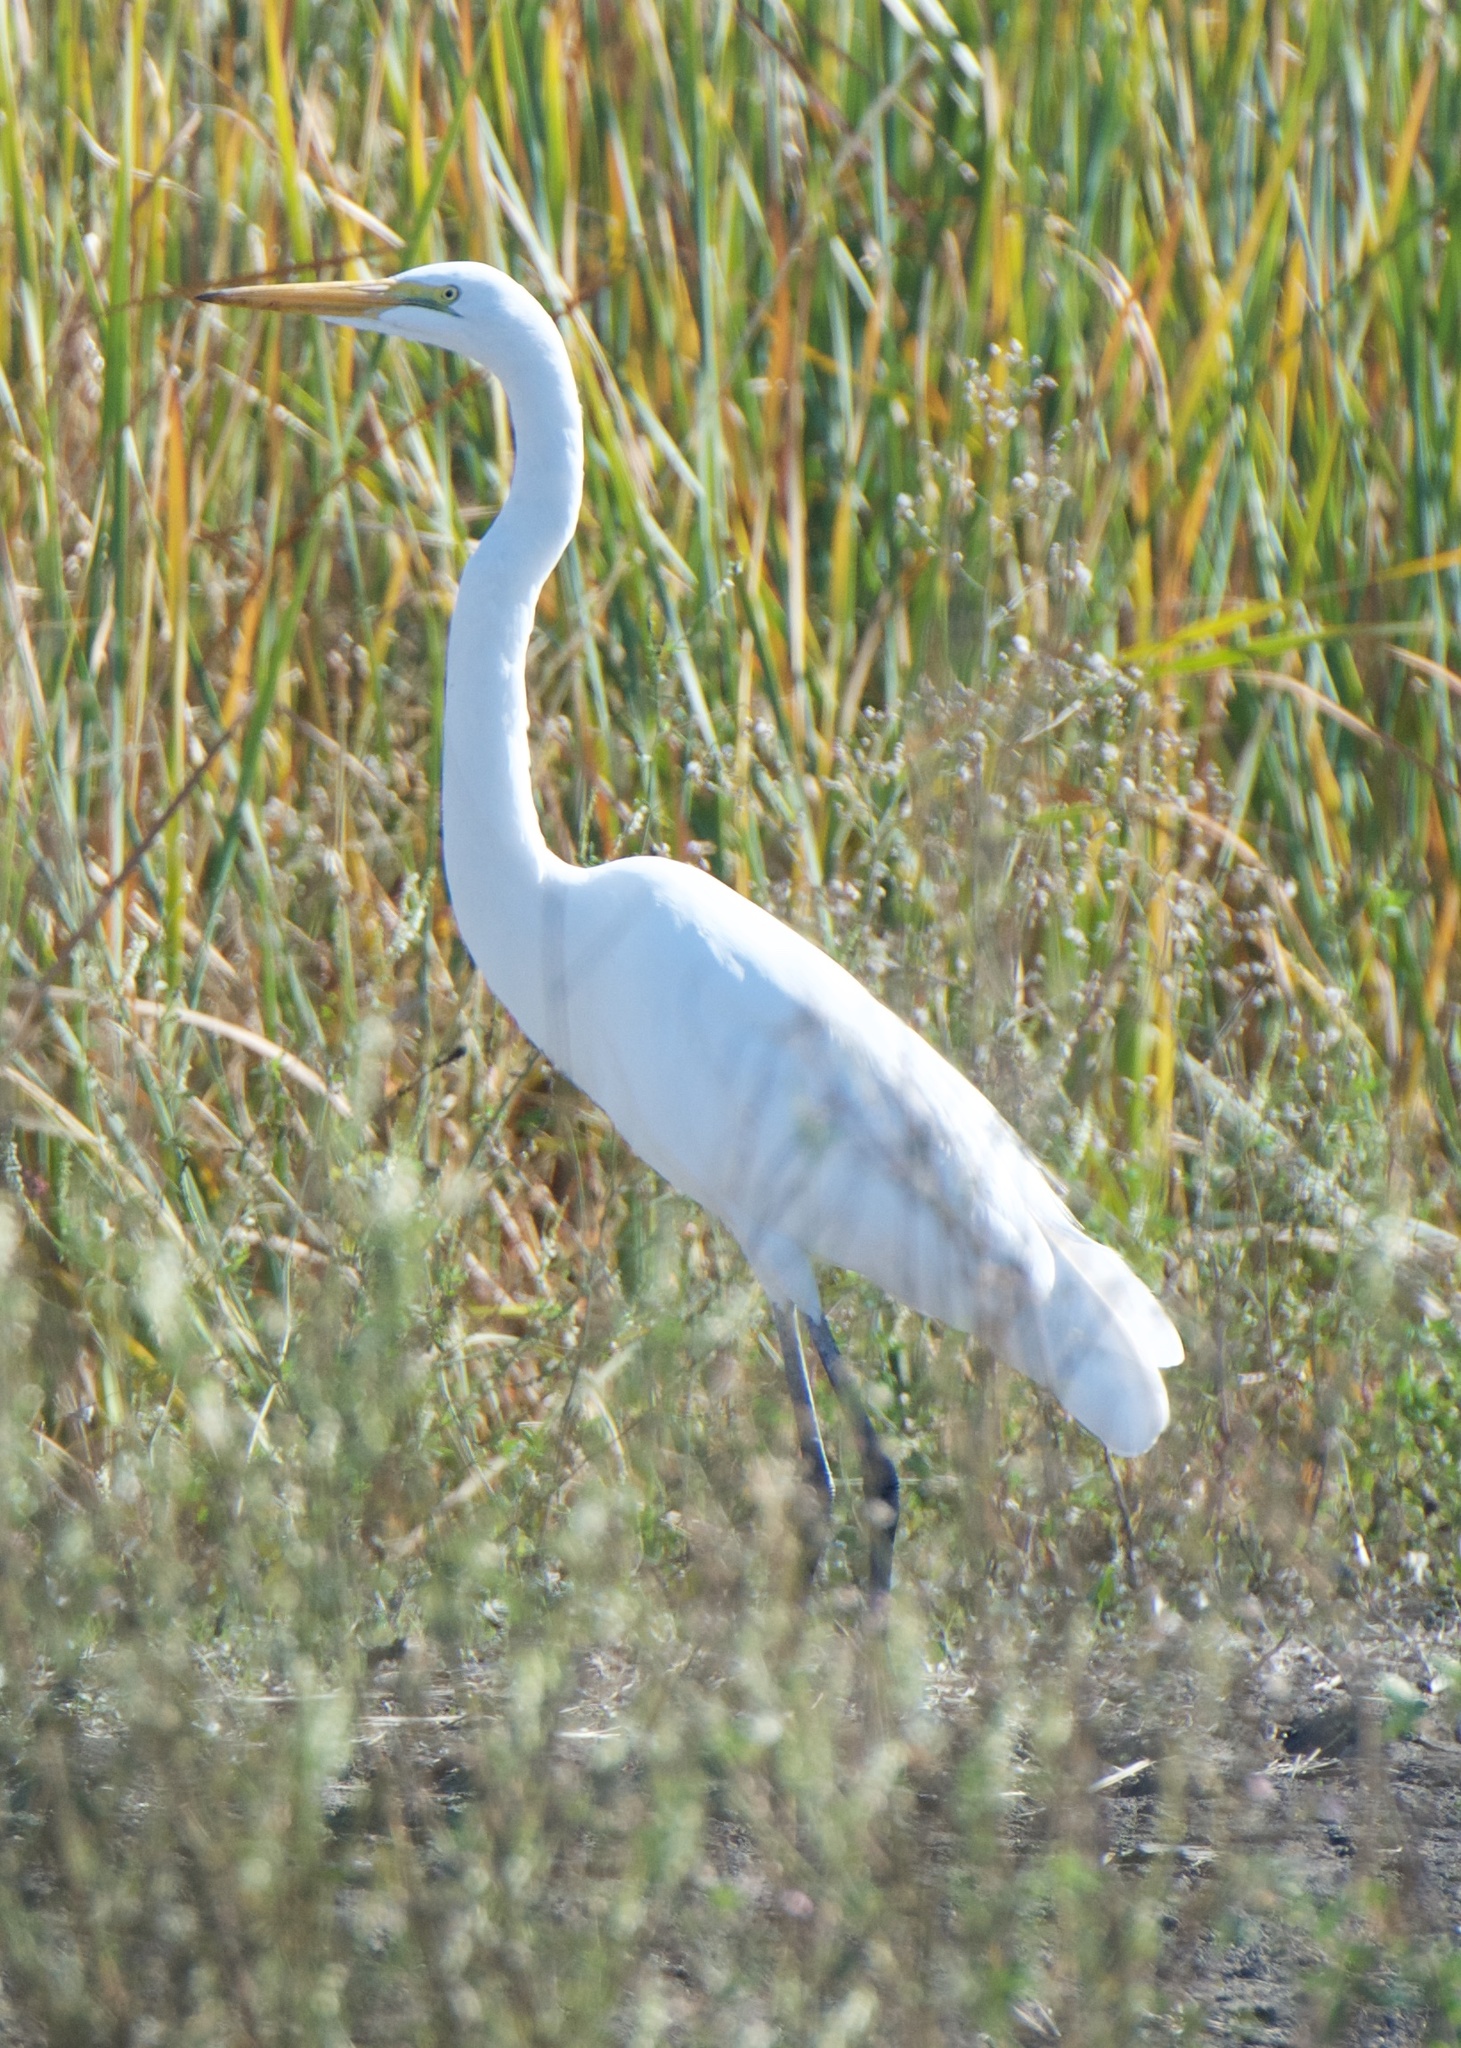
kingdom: Animalia
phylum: Chordata
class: Aves
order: Pelecaniformes
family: Ardeidae
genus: Ardea
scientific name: Ardea alba
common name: Great egret
